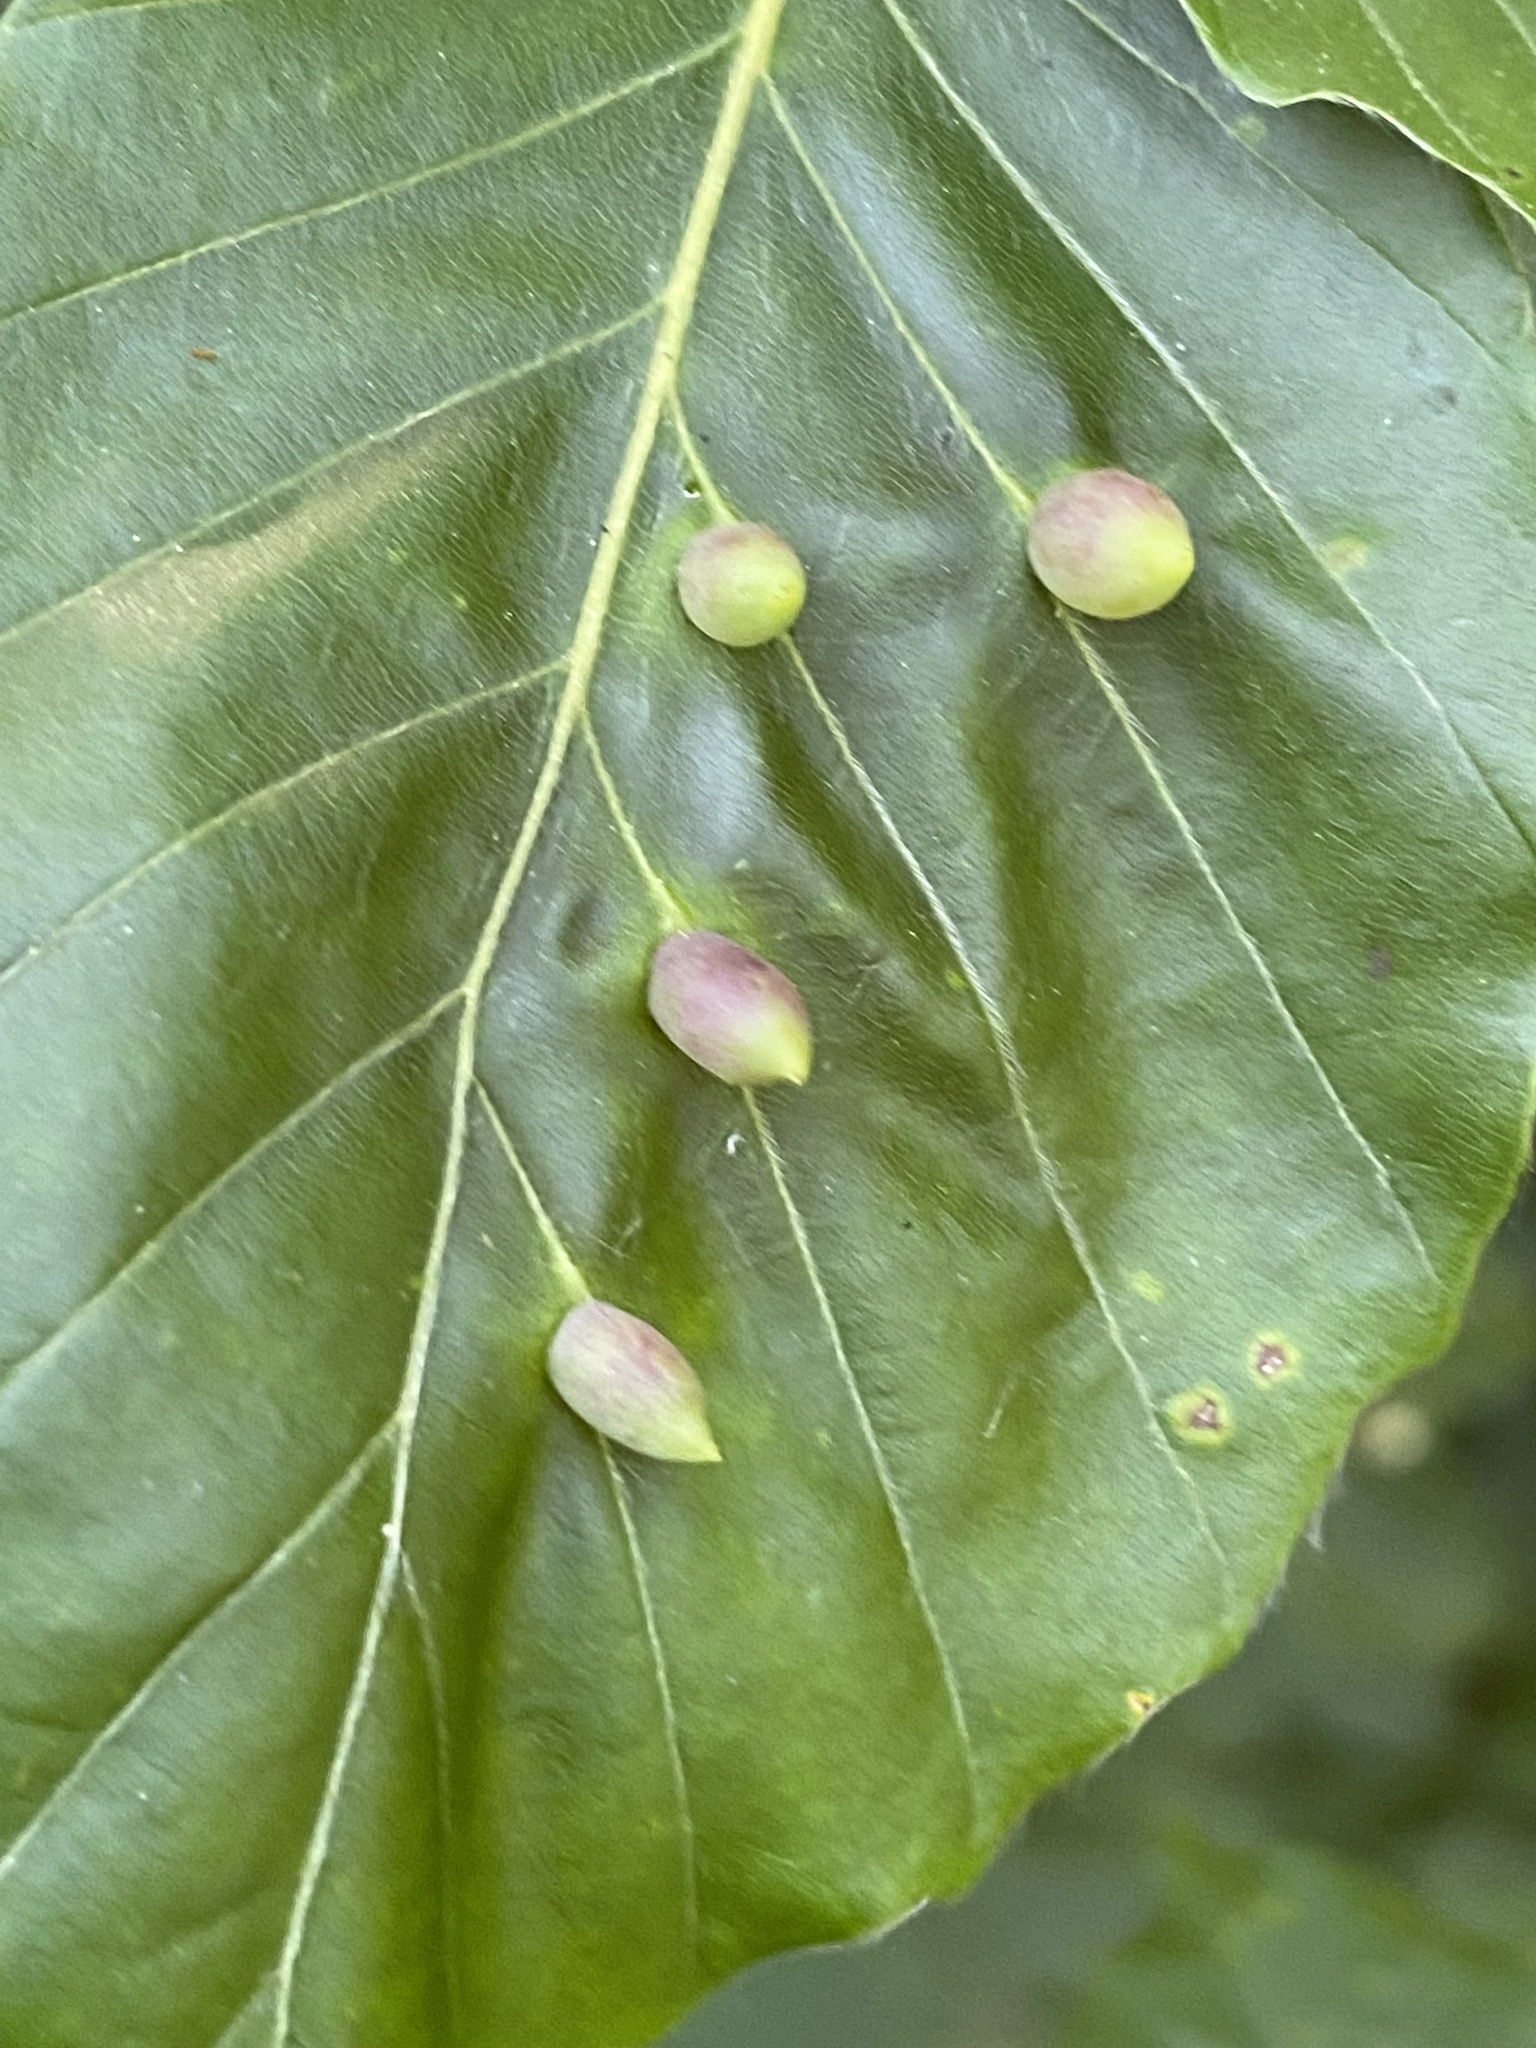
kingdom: Animalia
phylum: Arthropoda
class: Insecta
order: Diptera
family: Cecidomyiidae
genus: Mikiola
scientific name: Mikiola fagi
